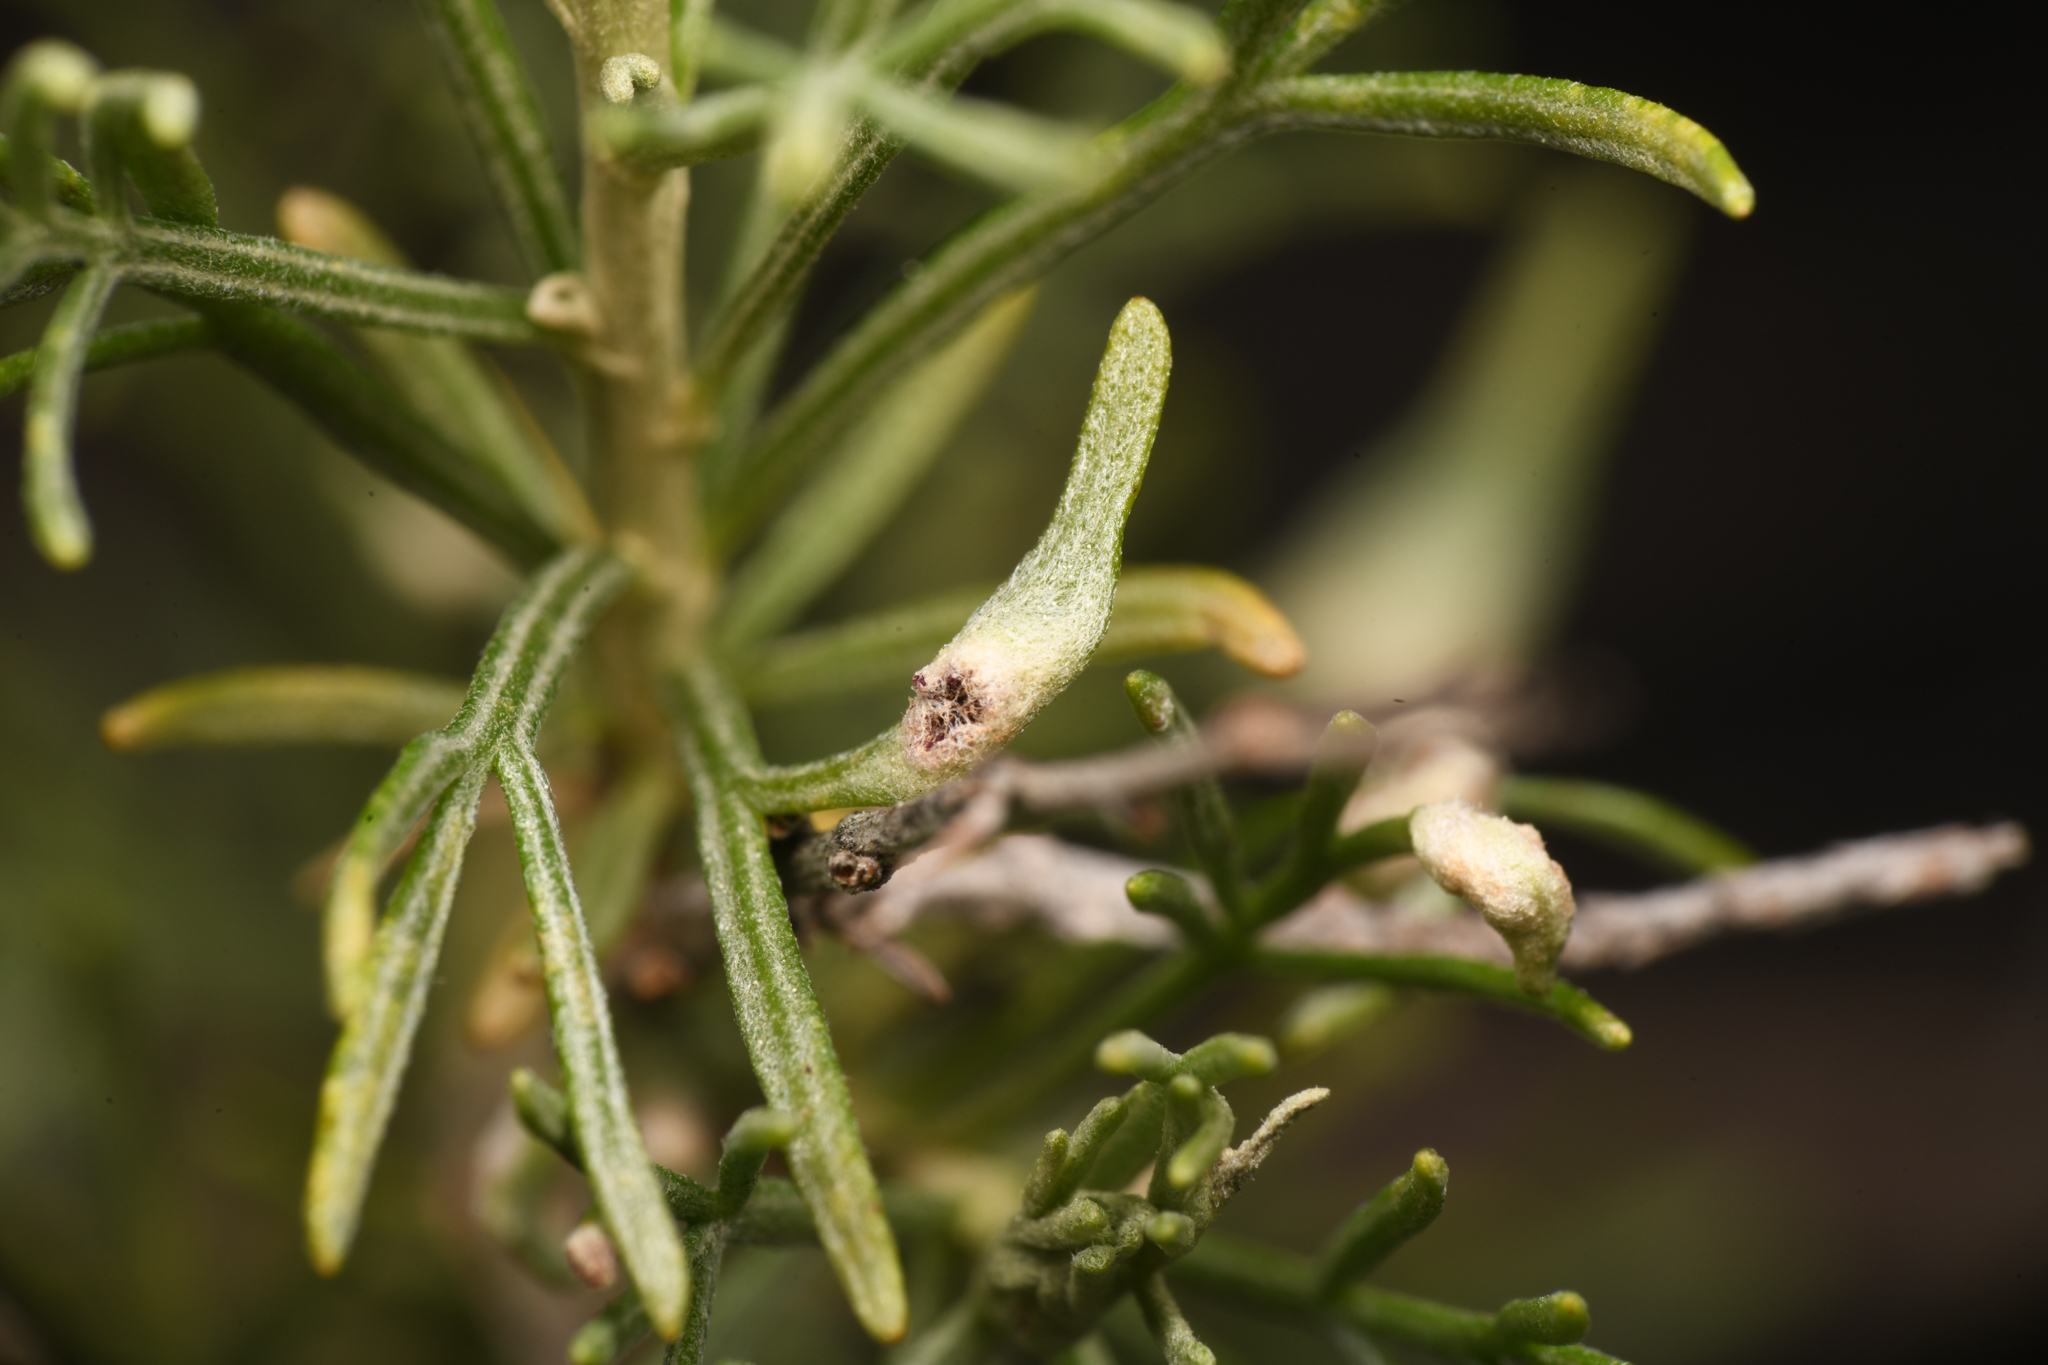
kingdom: Animalia
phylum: Arthropoda
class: Arachnida
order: Trombidiformes
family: Eriophyidae
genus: Aceria
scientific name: Aceria
